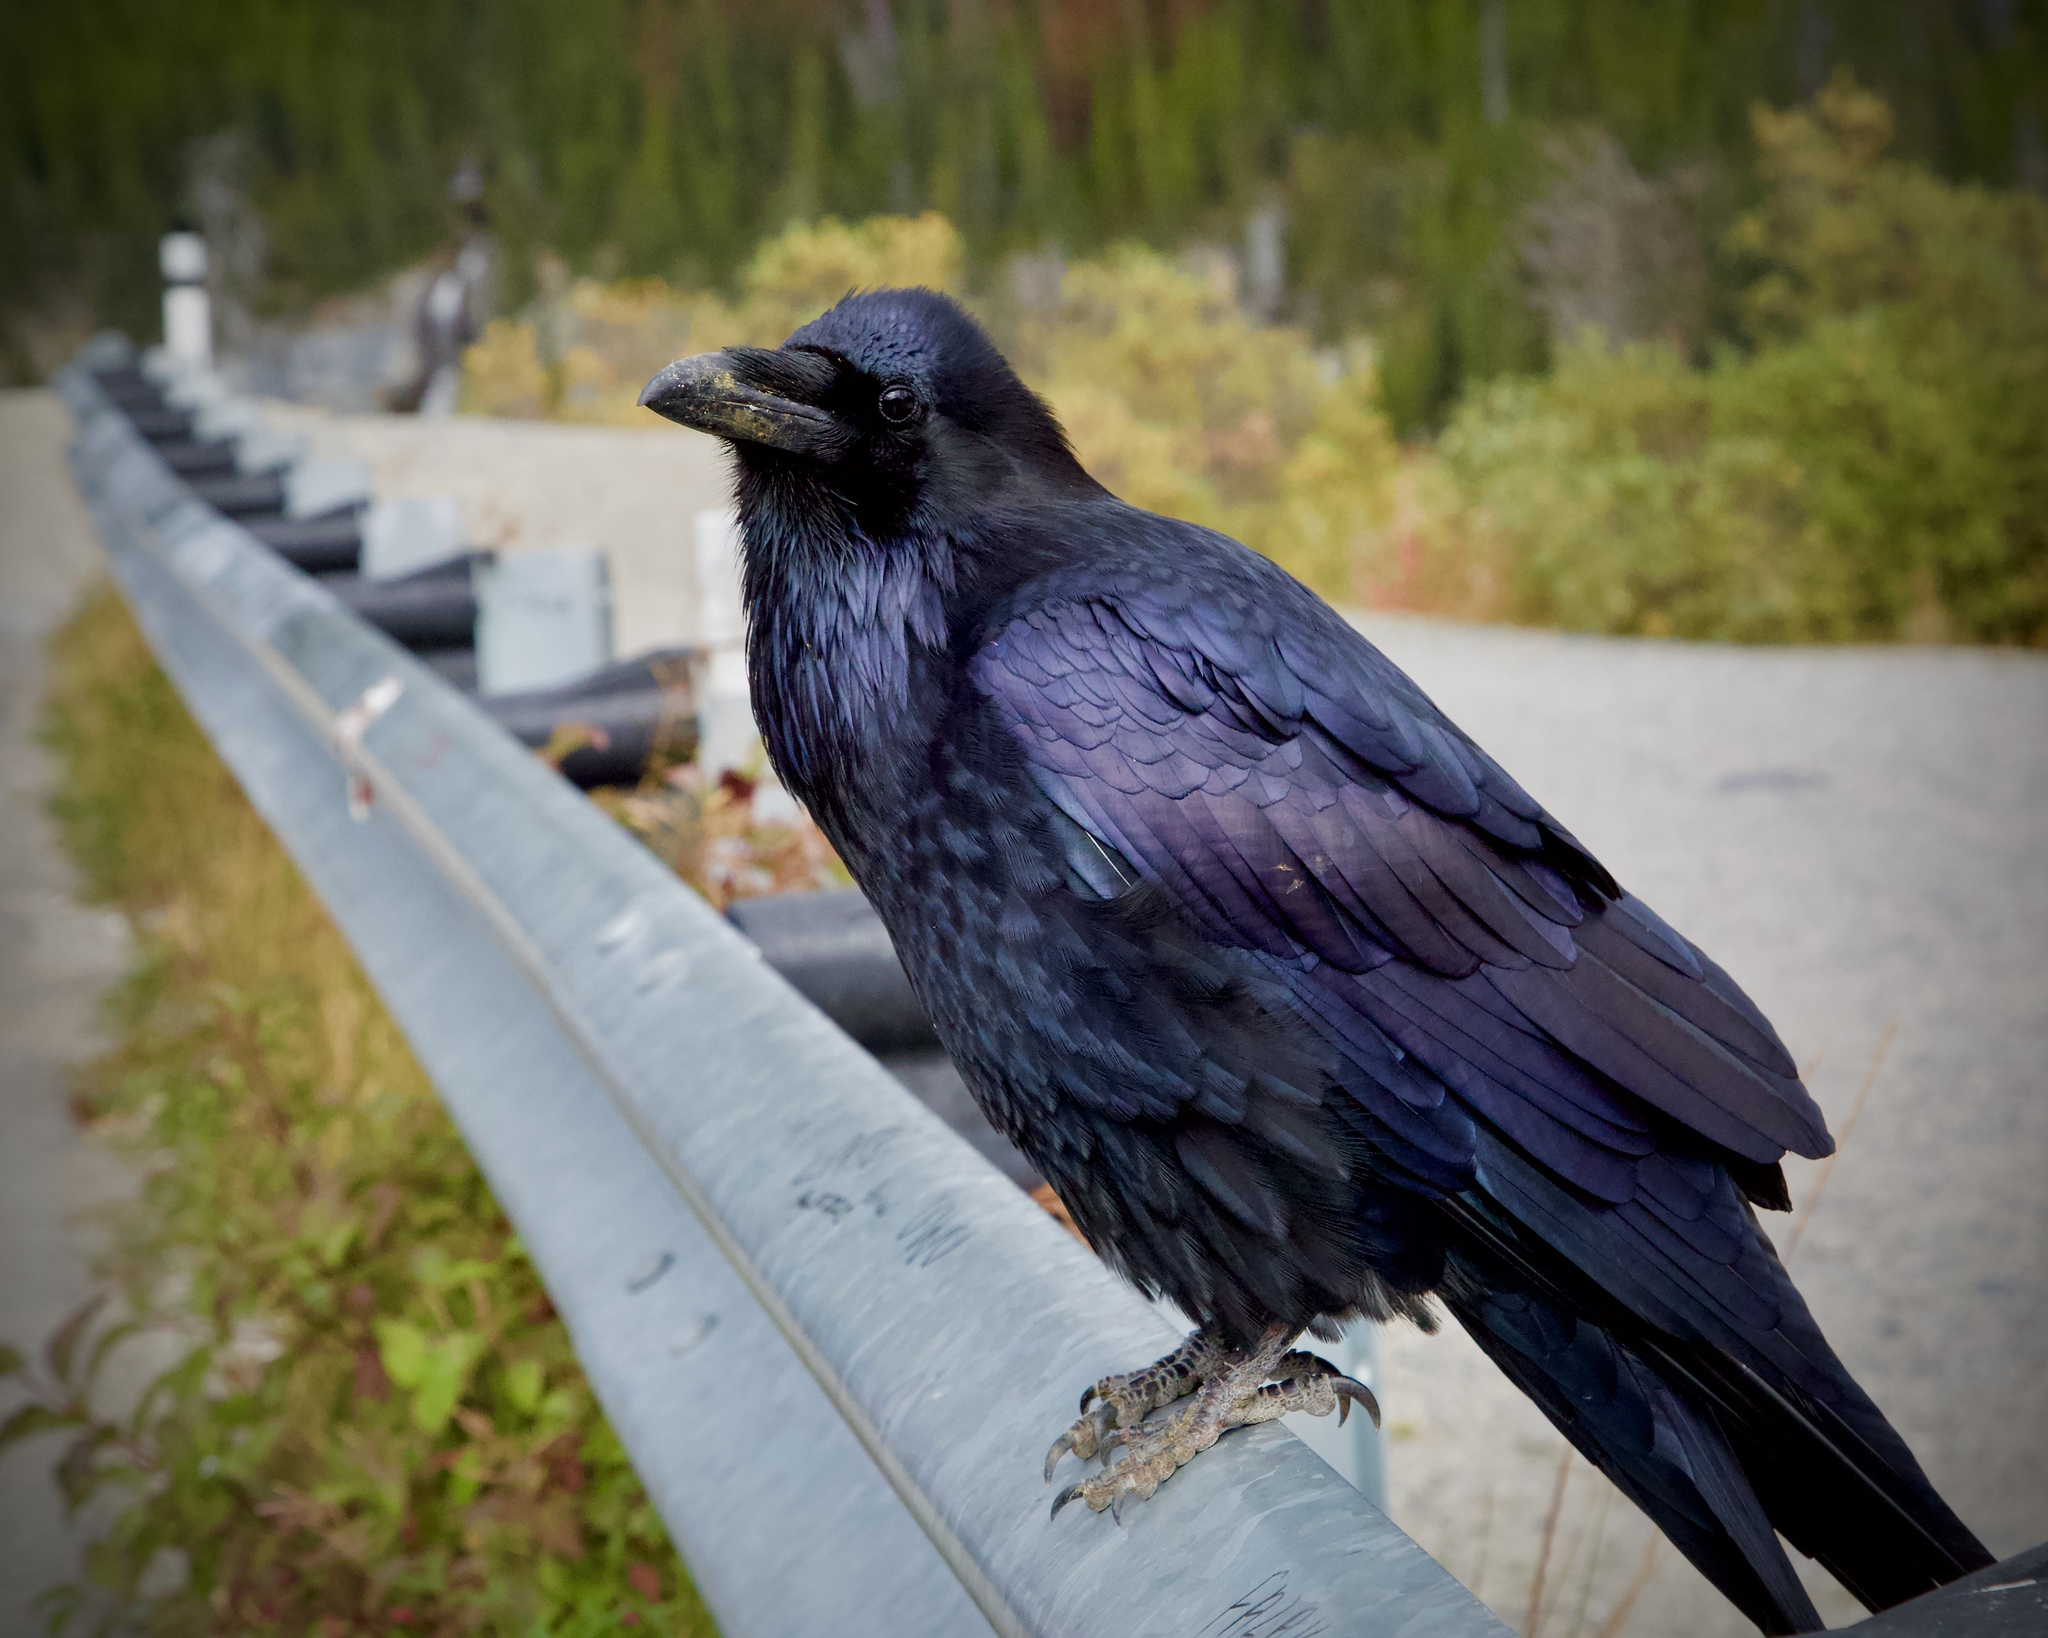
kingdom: Animalia
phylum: Chordata
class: Aves
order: Passeriformes
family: Corvidae
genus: Corvus
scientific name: Corvus corax
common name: Common raven
